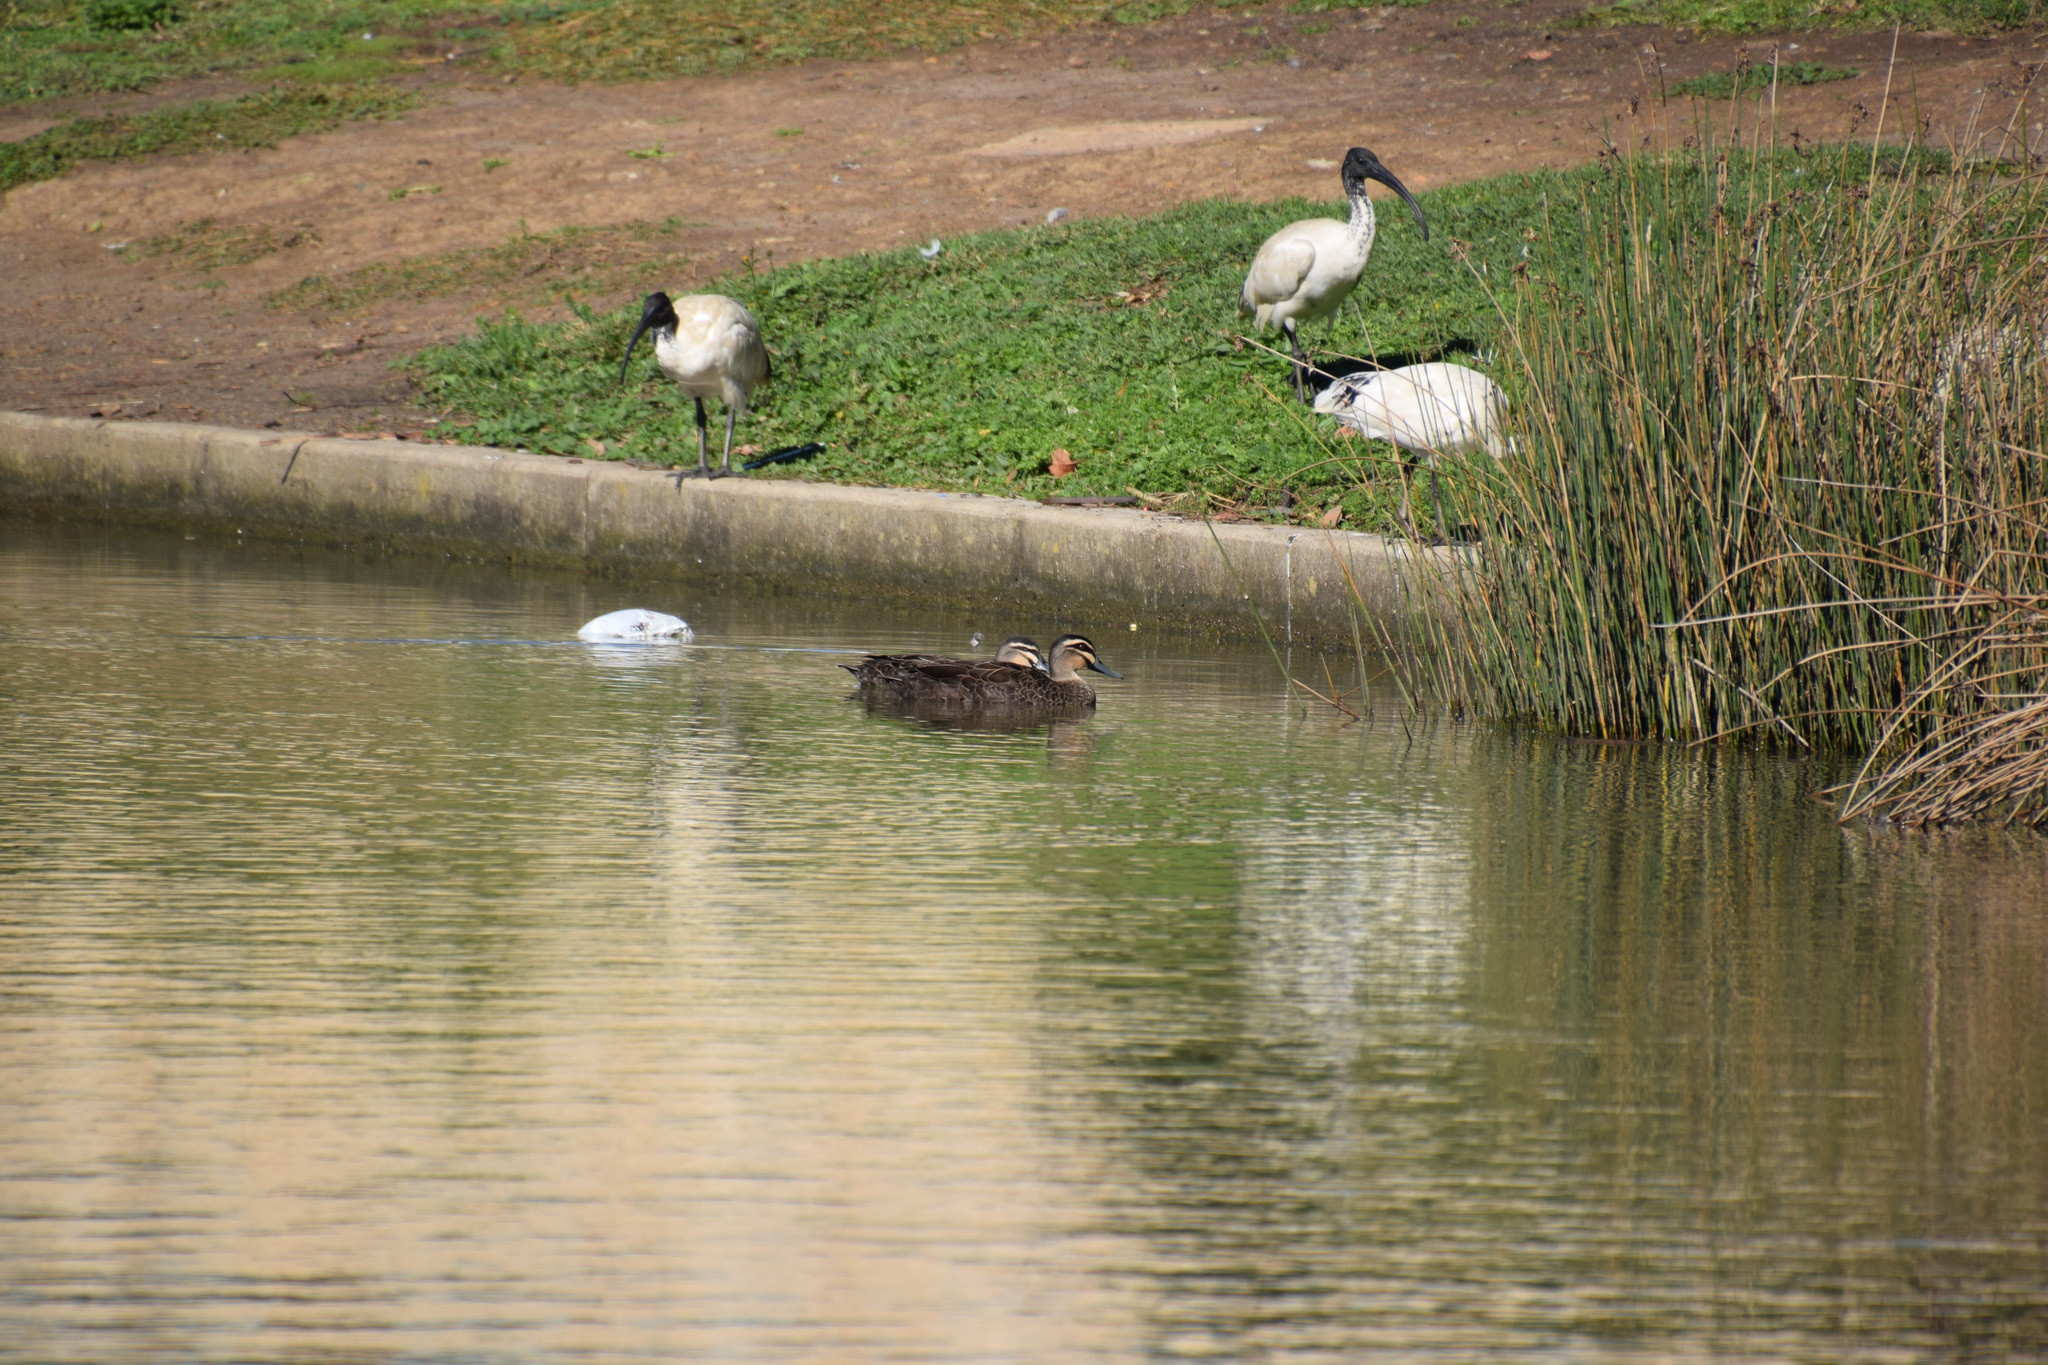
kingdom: Animalia
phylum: Chordata
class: Aves
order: Anseriformes
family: Anatidae
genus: Anas
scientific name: Anas superciliosa
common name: Pacific black duck
